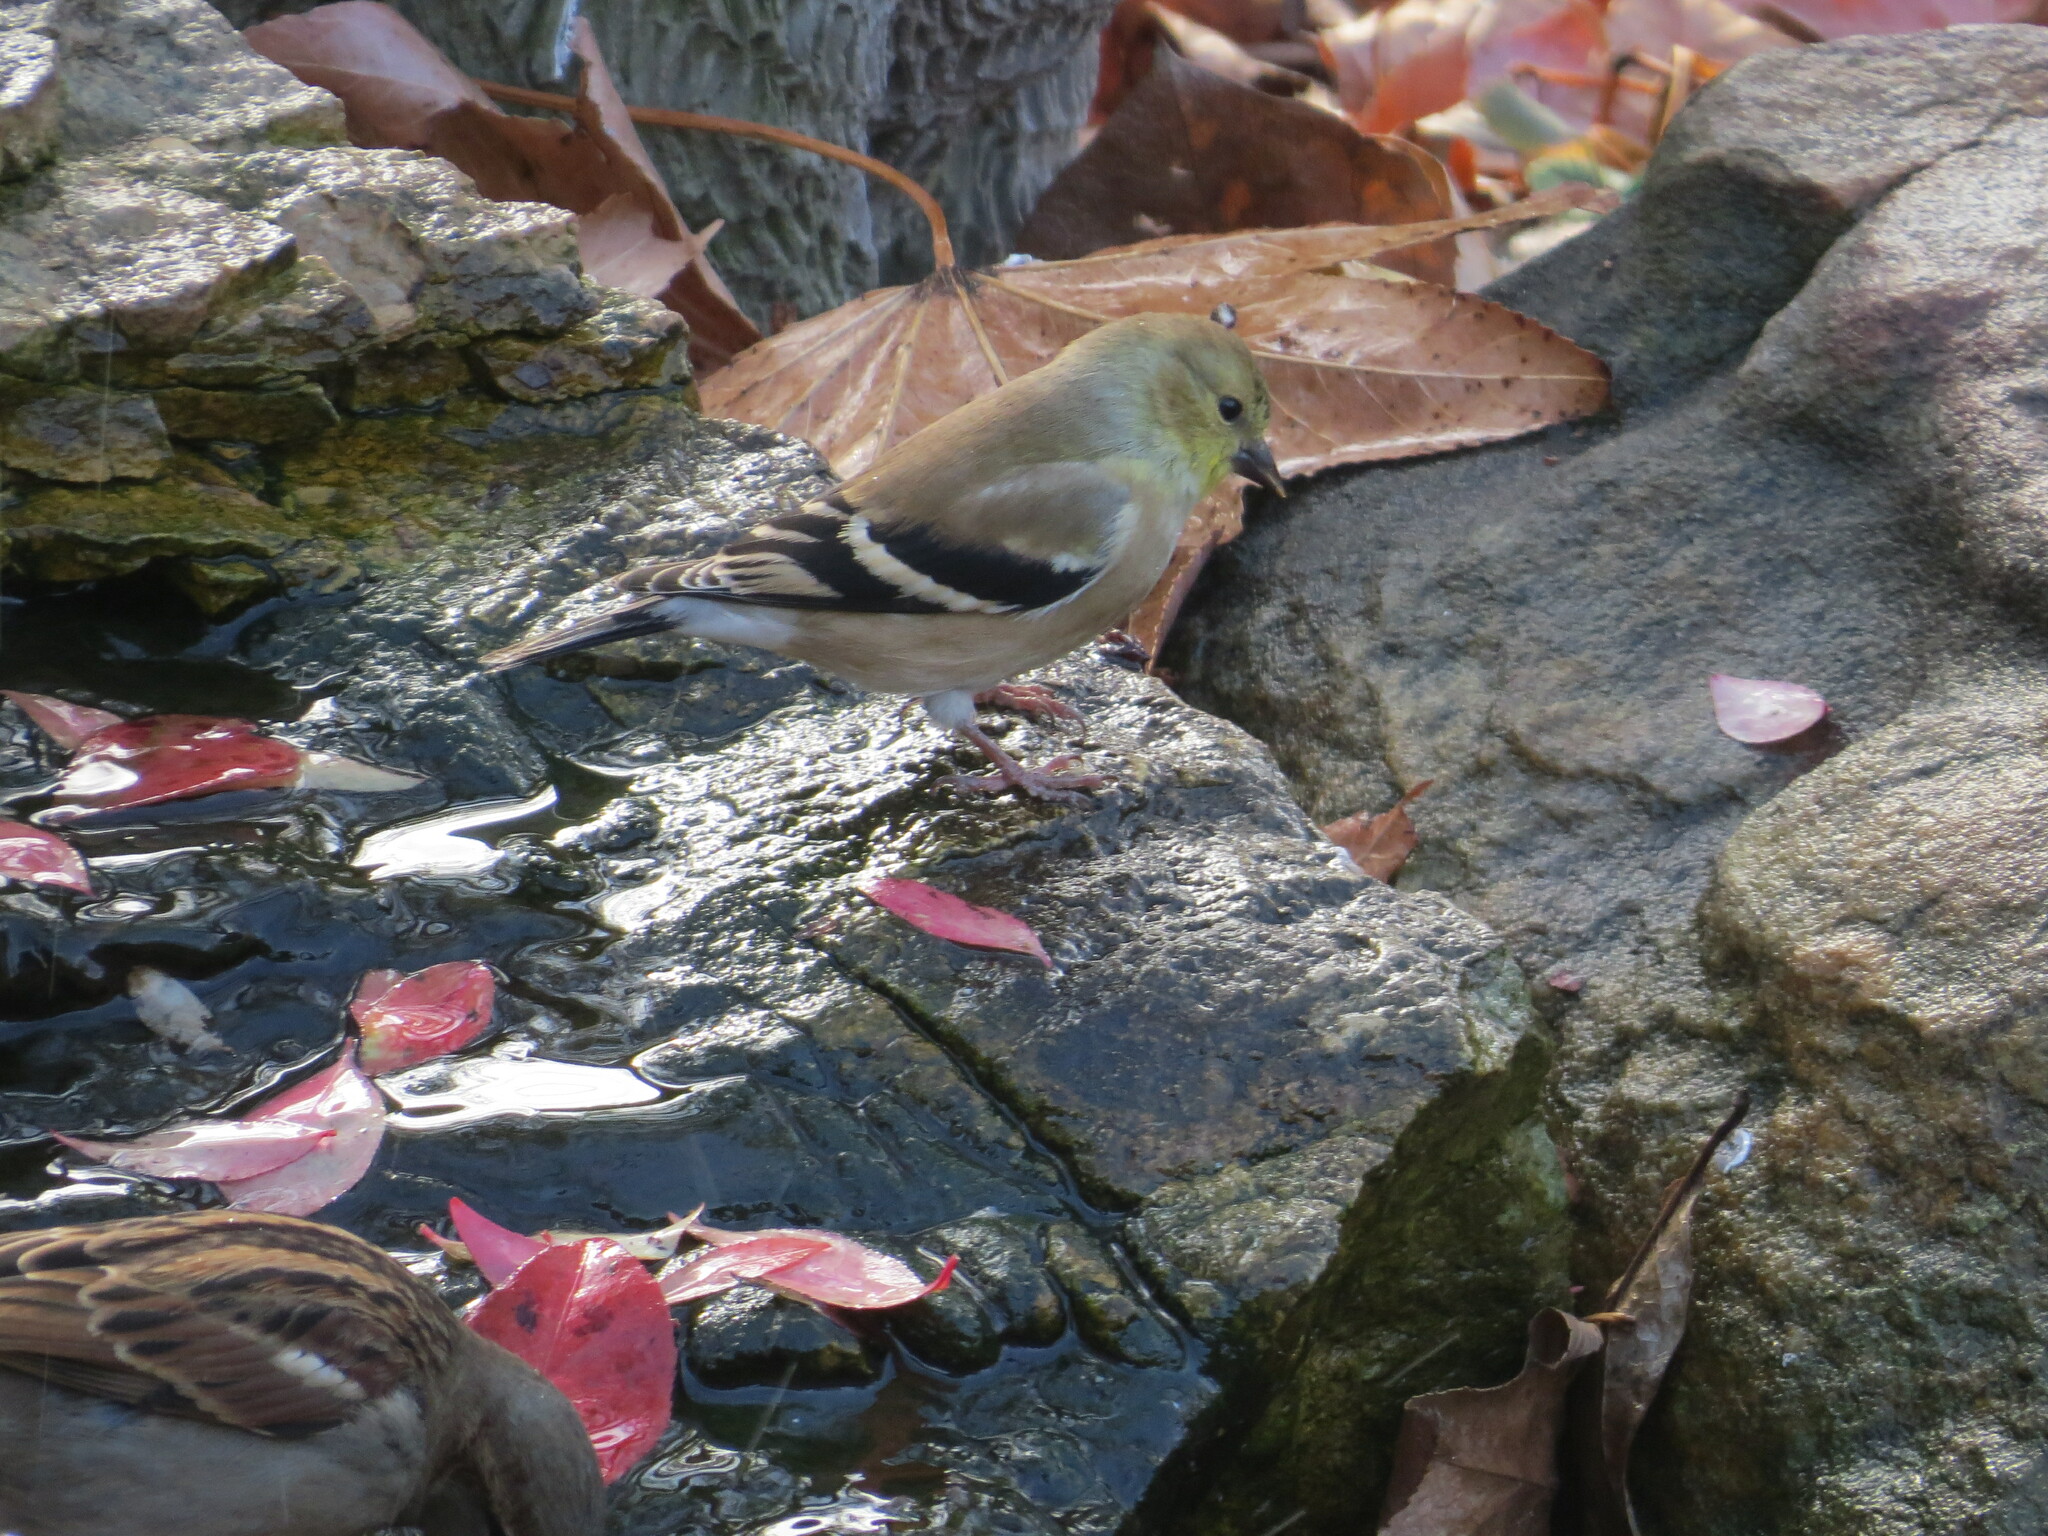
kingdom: Animalia
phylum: Chordata
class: Aves
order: Passeriformes
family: Fringillidae
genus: Spinus
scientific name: Spinus tristis
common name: American goldfinch
